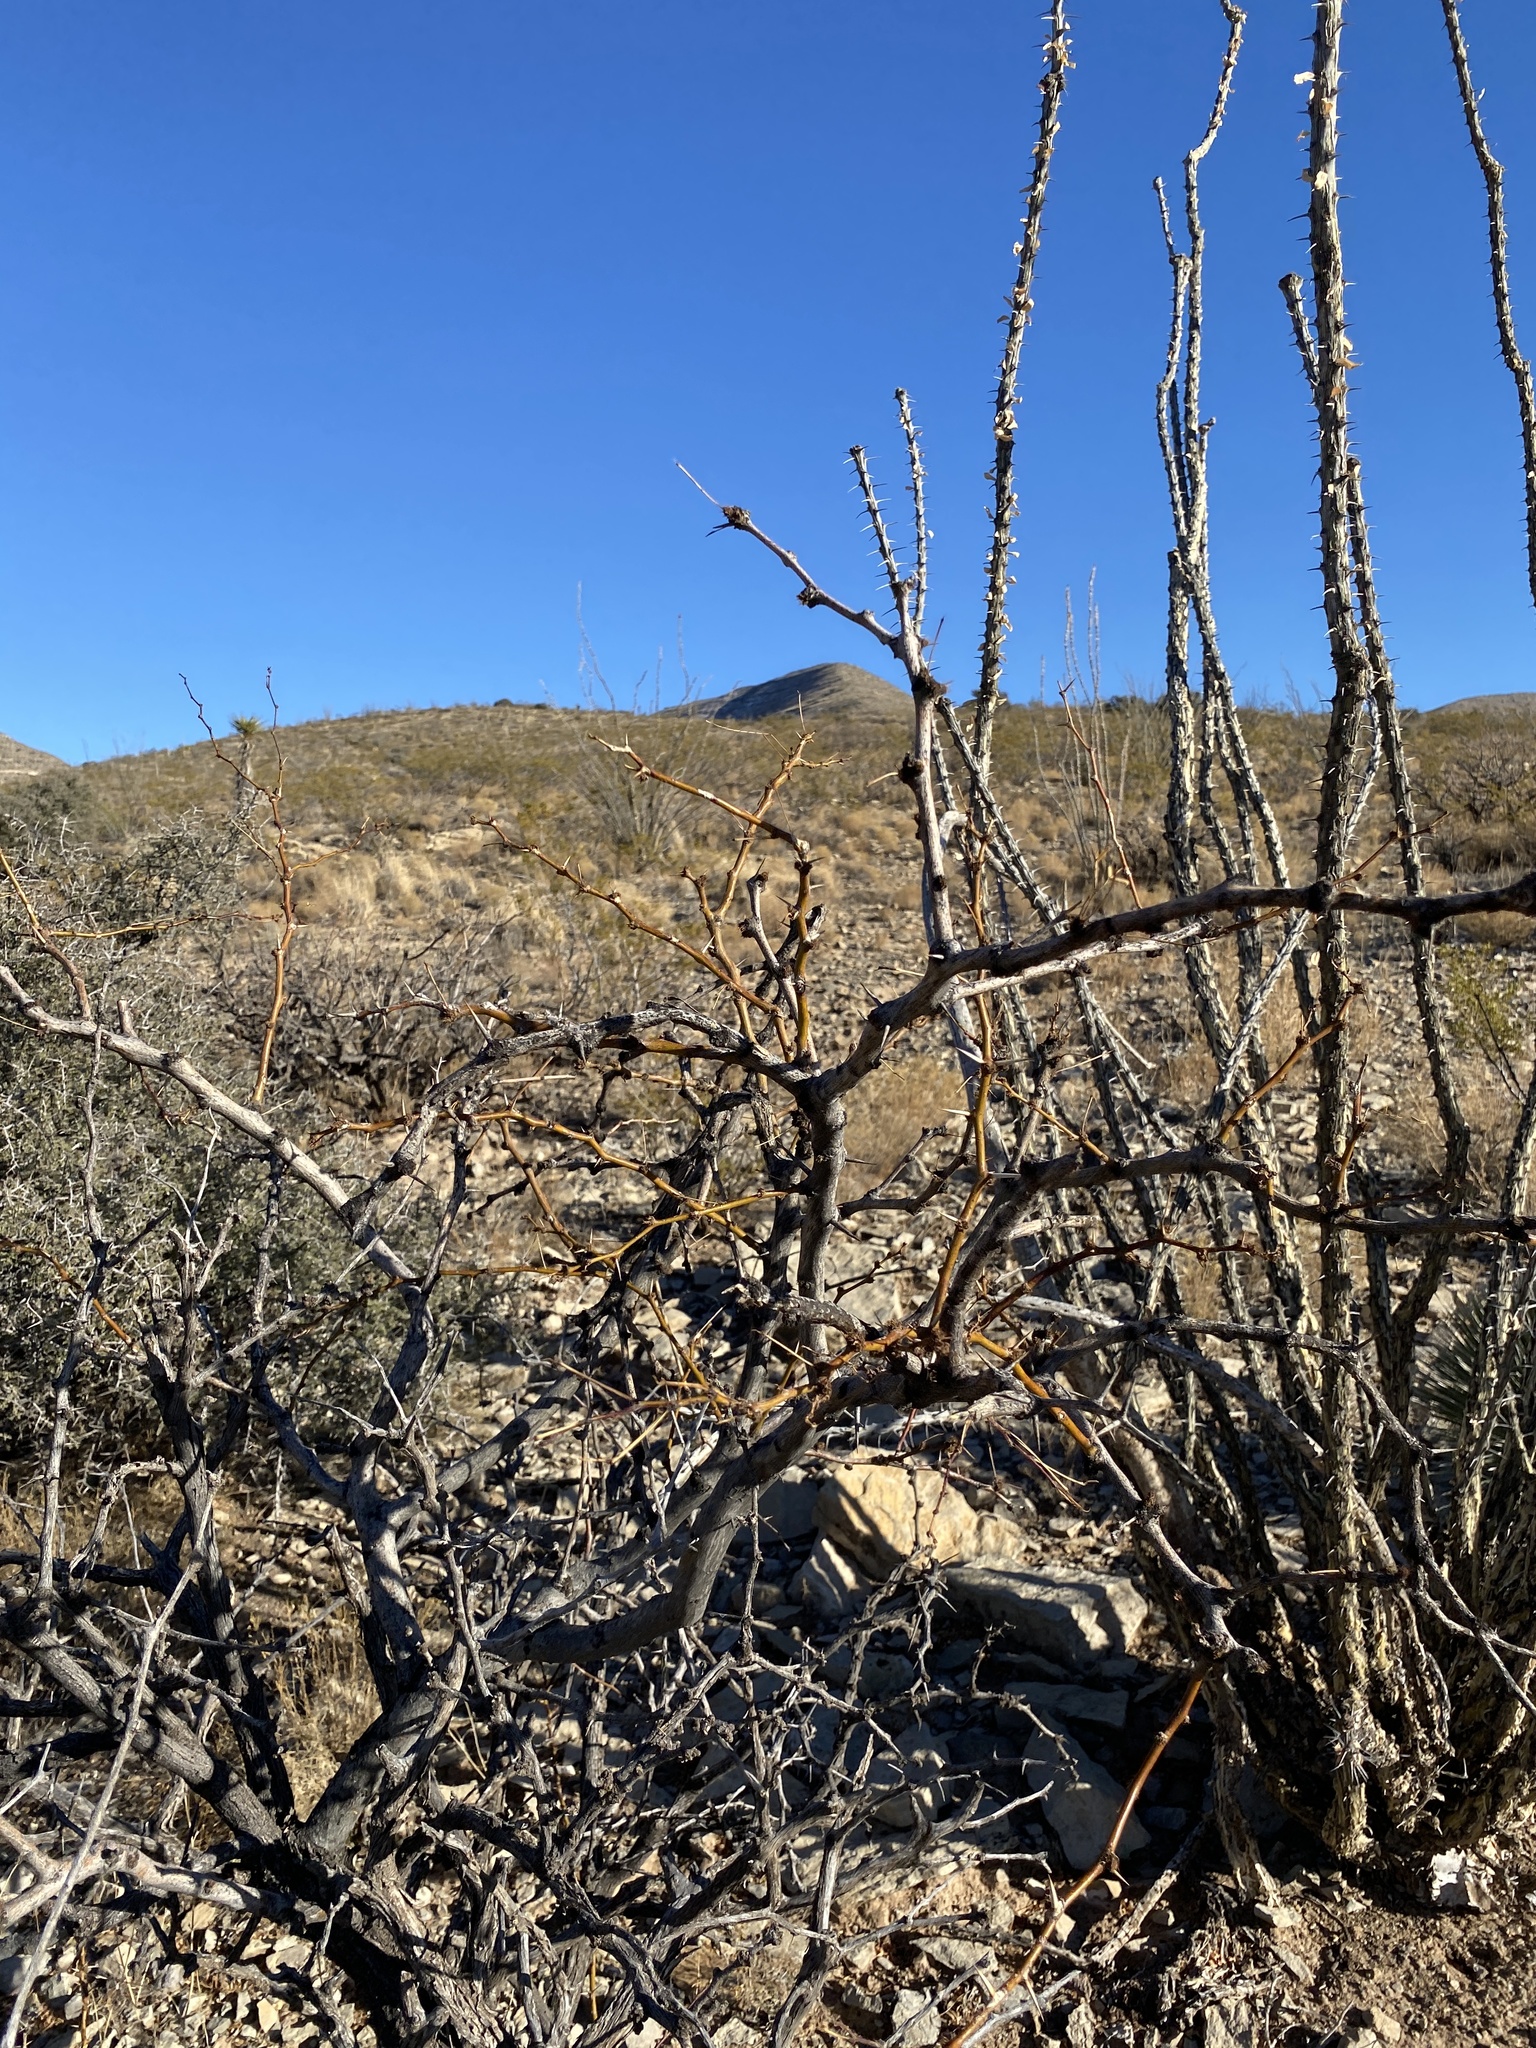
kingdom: Plantae
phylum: Tracheophyta
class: Magnoliopsida
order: Fabales
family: Fabaceae
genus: Prosopis
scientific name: Prosopis glandulosa
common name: Honey mesquite
